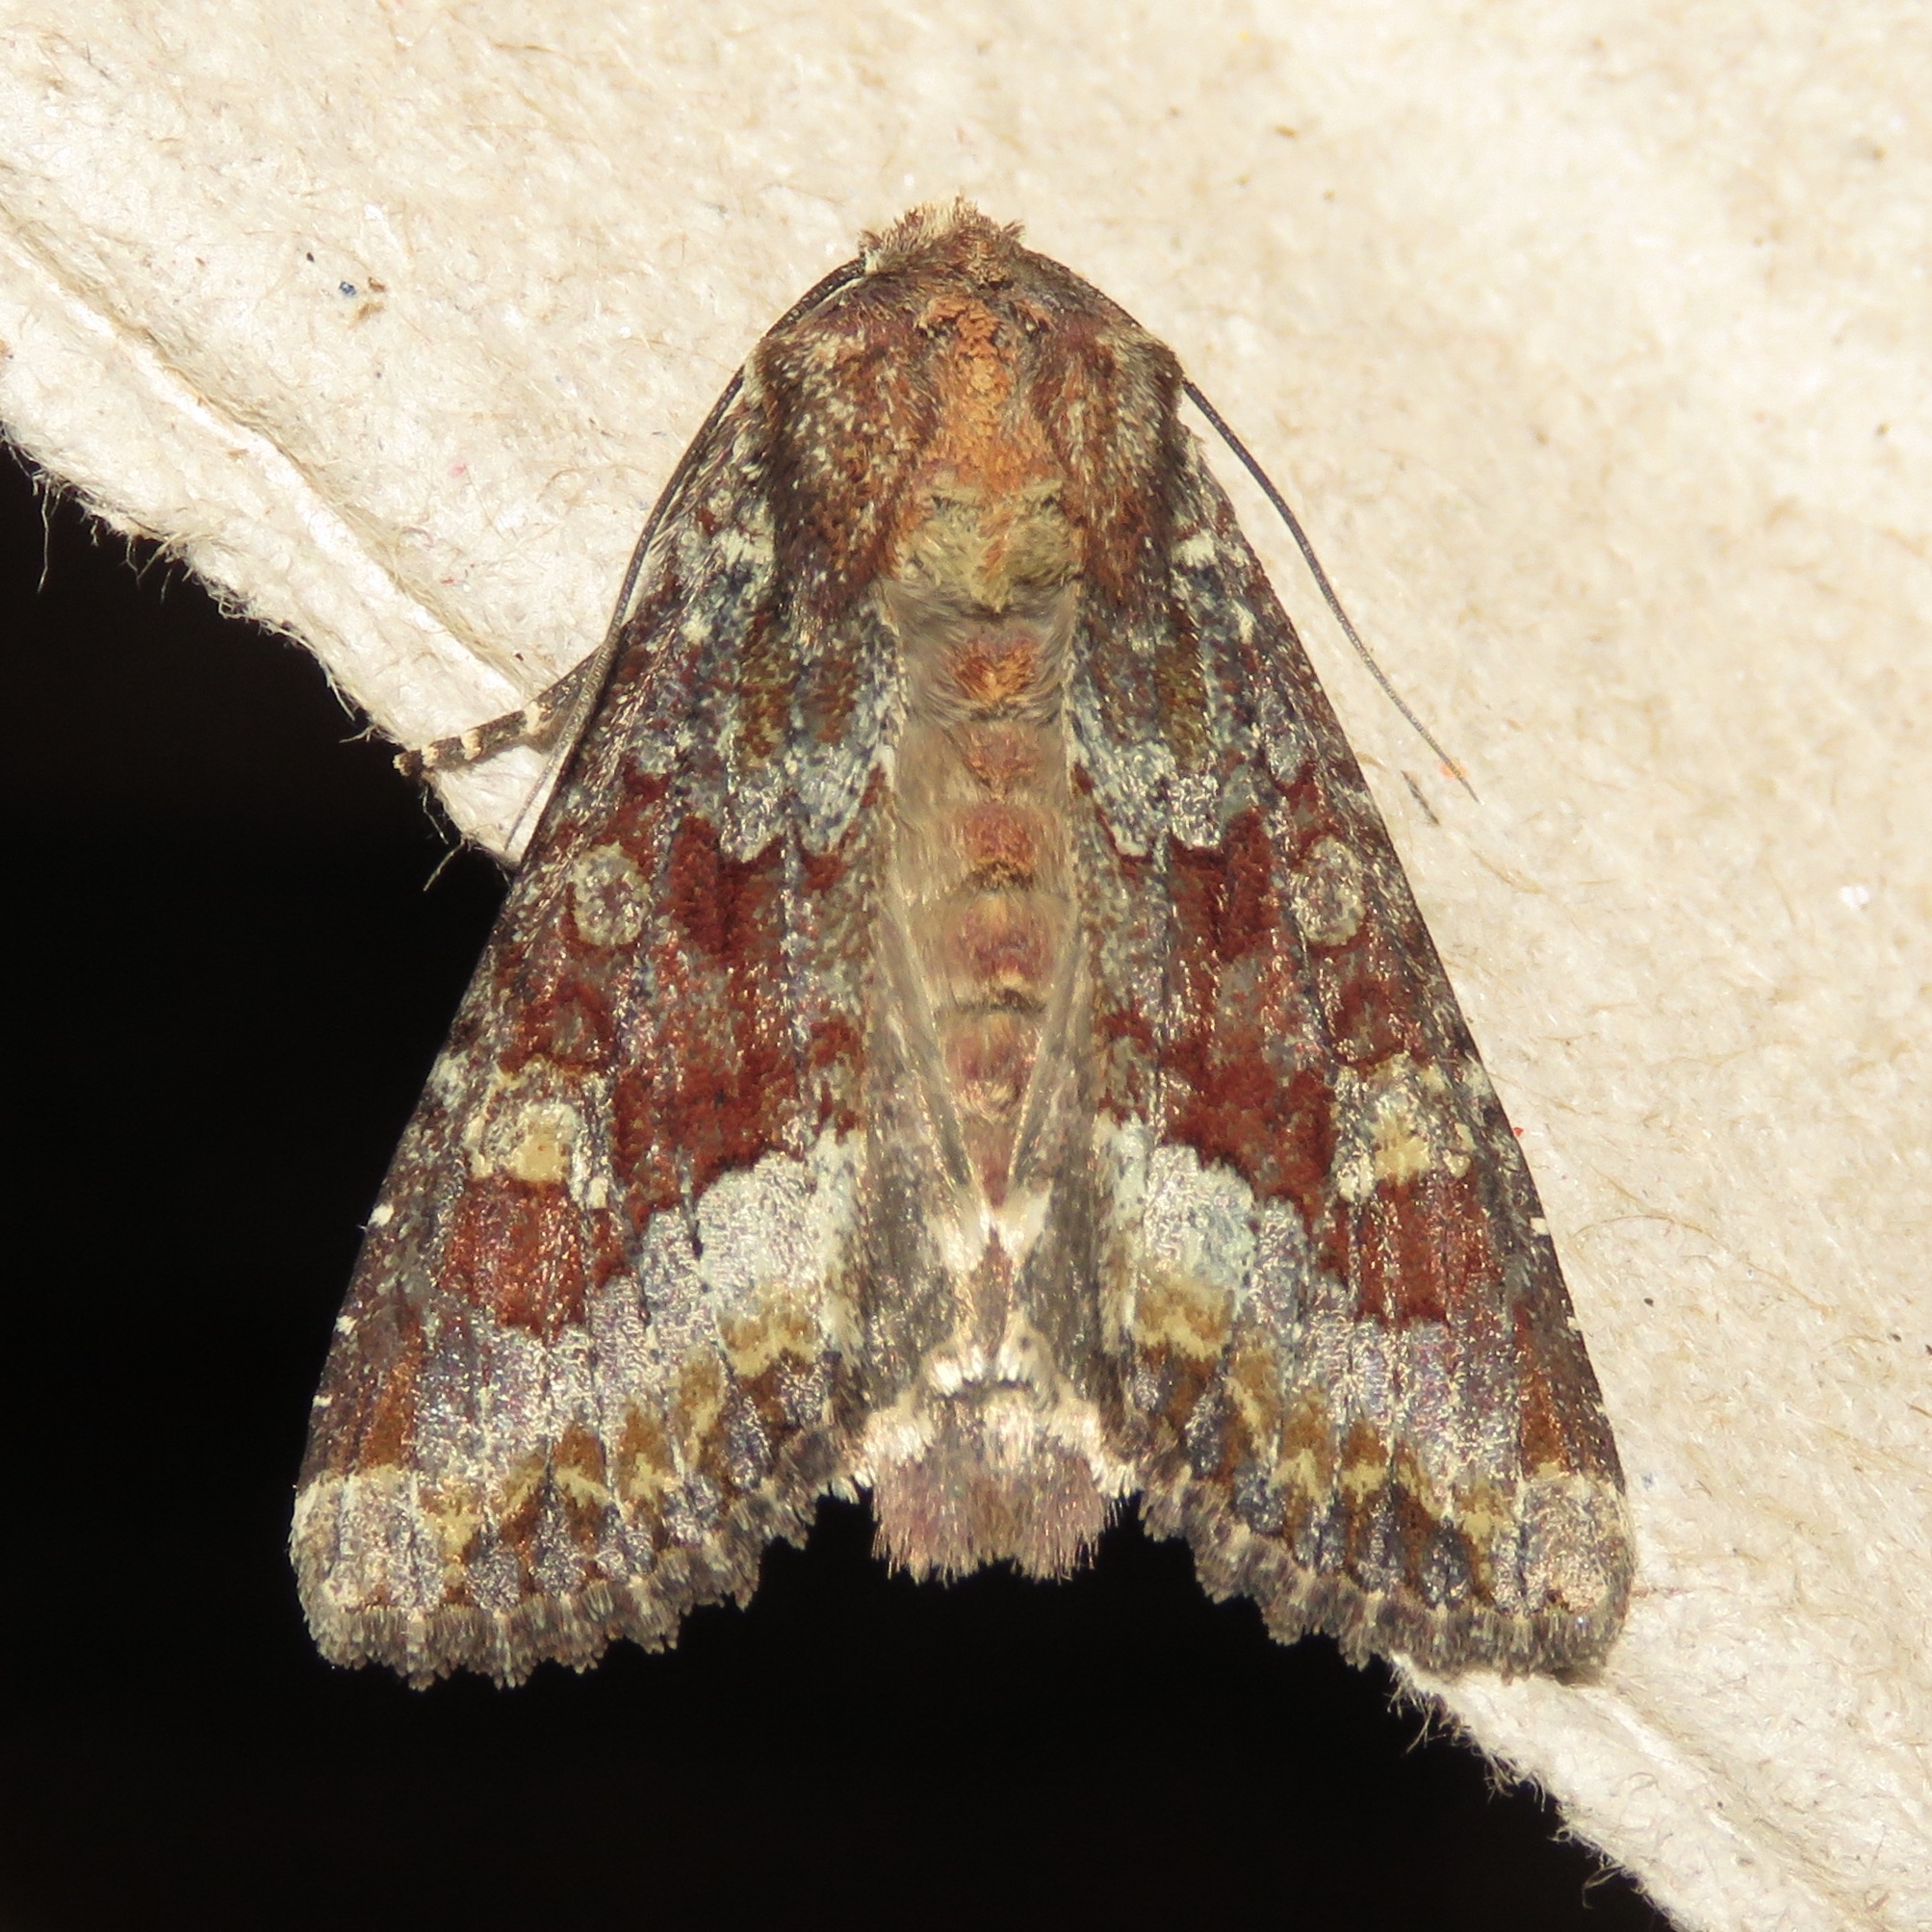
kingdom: Animalia
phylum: Arthropoda
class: Insecta
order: Lepidoptera
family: Noctuidae
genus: Apamea
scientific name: Apamea amputatrix
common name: Yellow-headed cutworm moth
